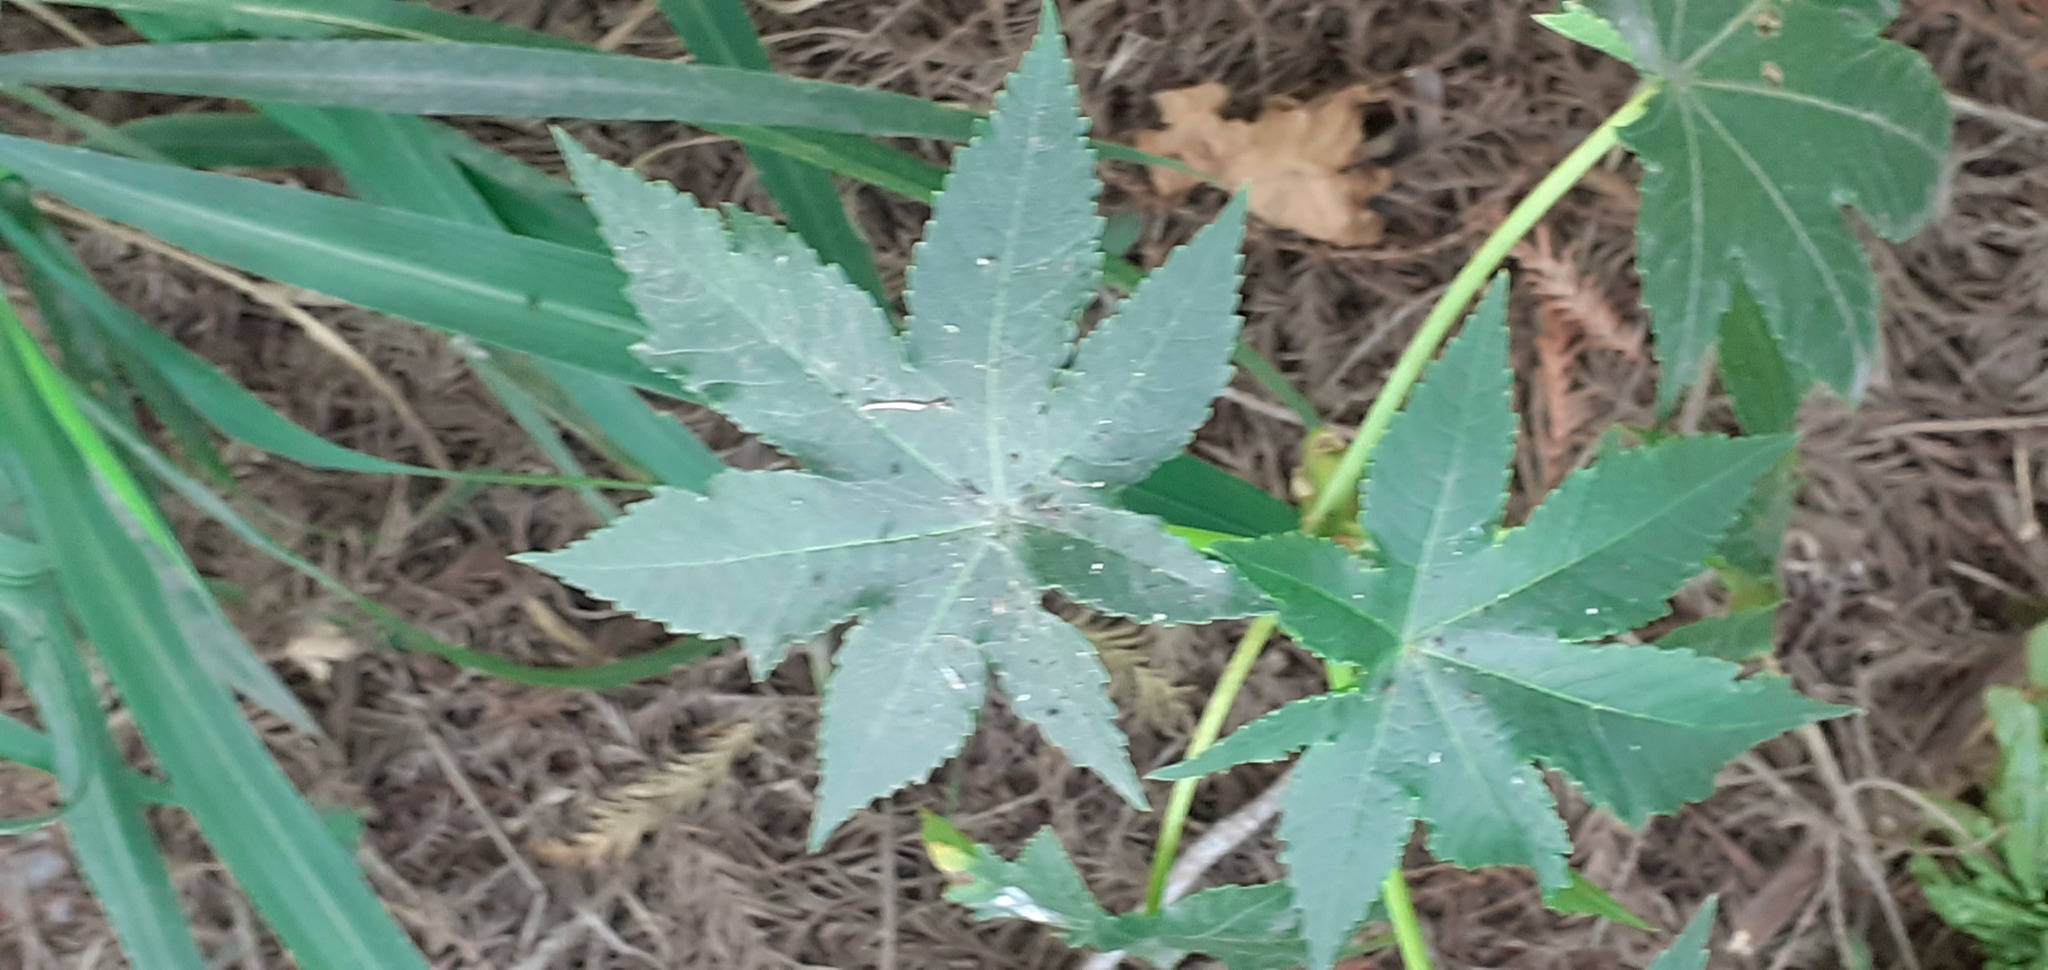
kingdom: Plantae
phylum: Tracheophyta
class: Magnoliopsida
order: Malpighiales
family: Euphorbiaceae
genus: Ricinus
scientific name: Ricinus communis
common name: Castor-oil-plant
